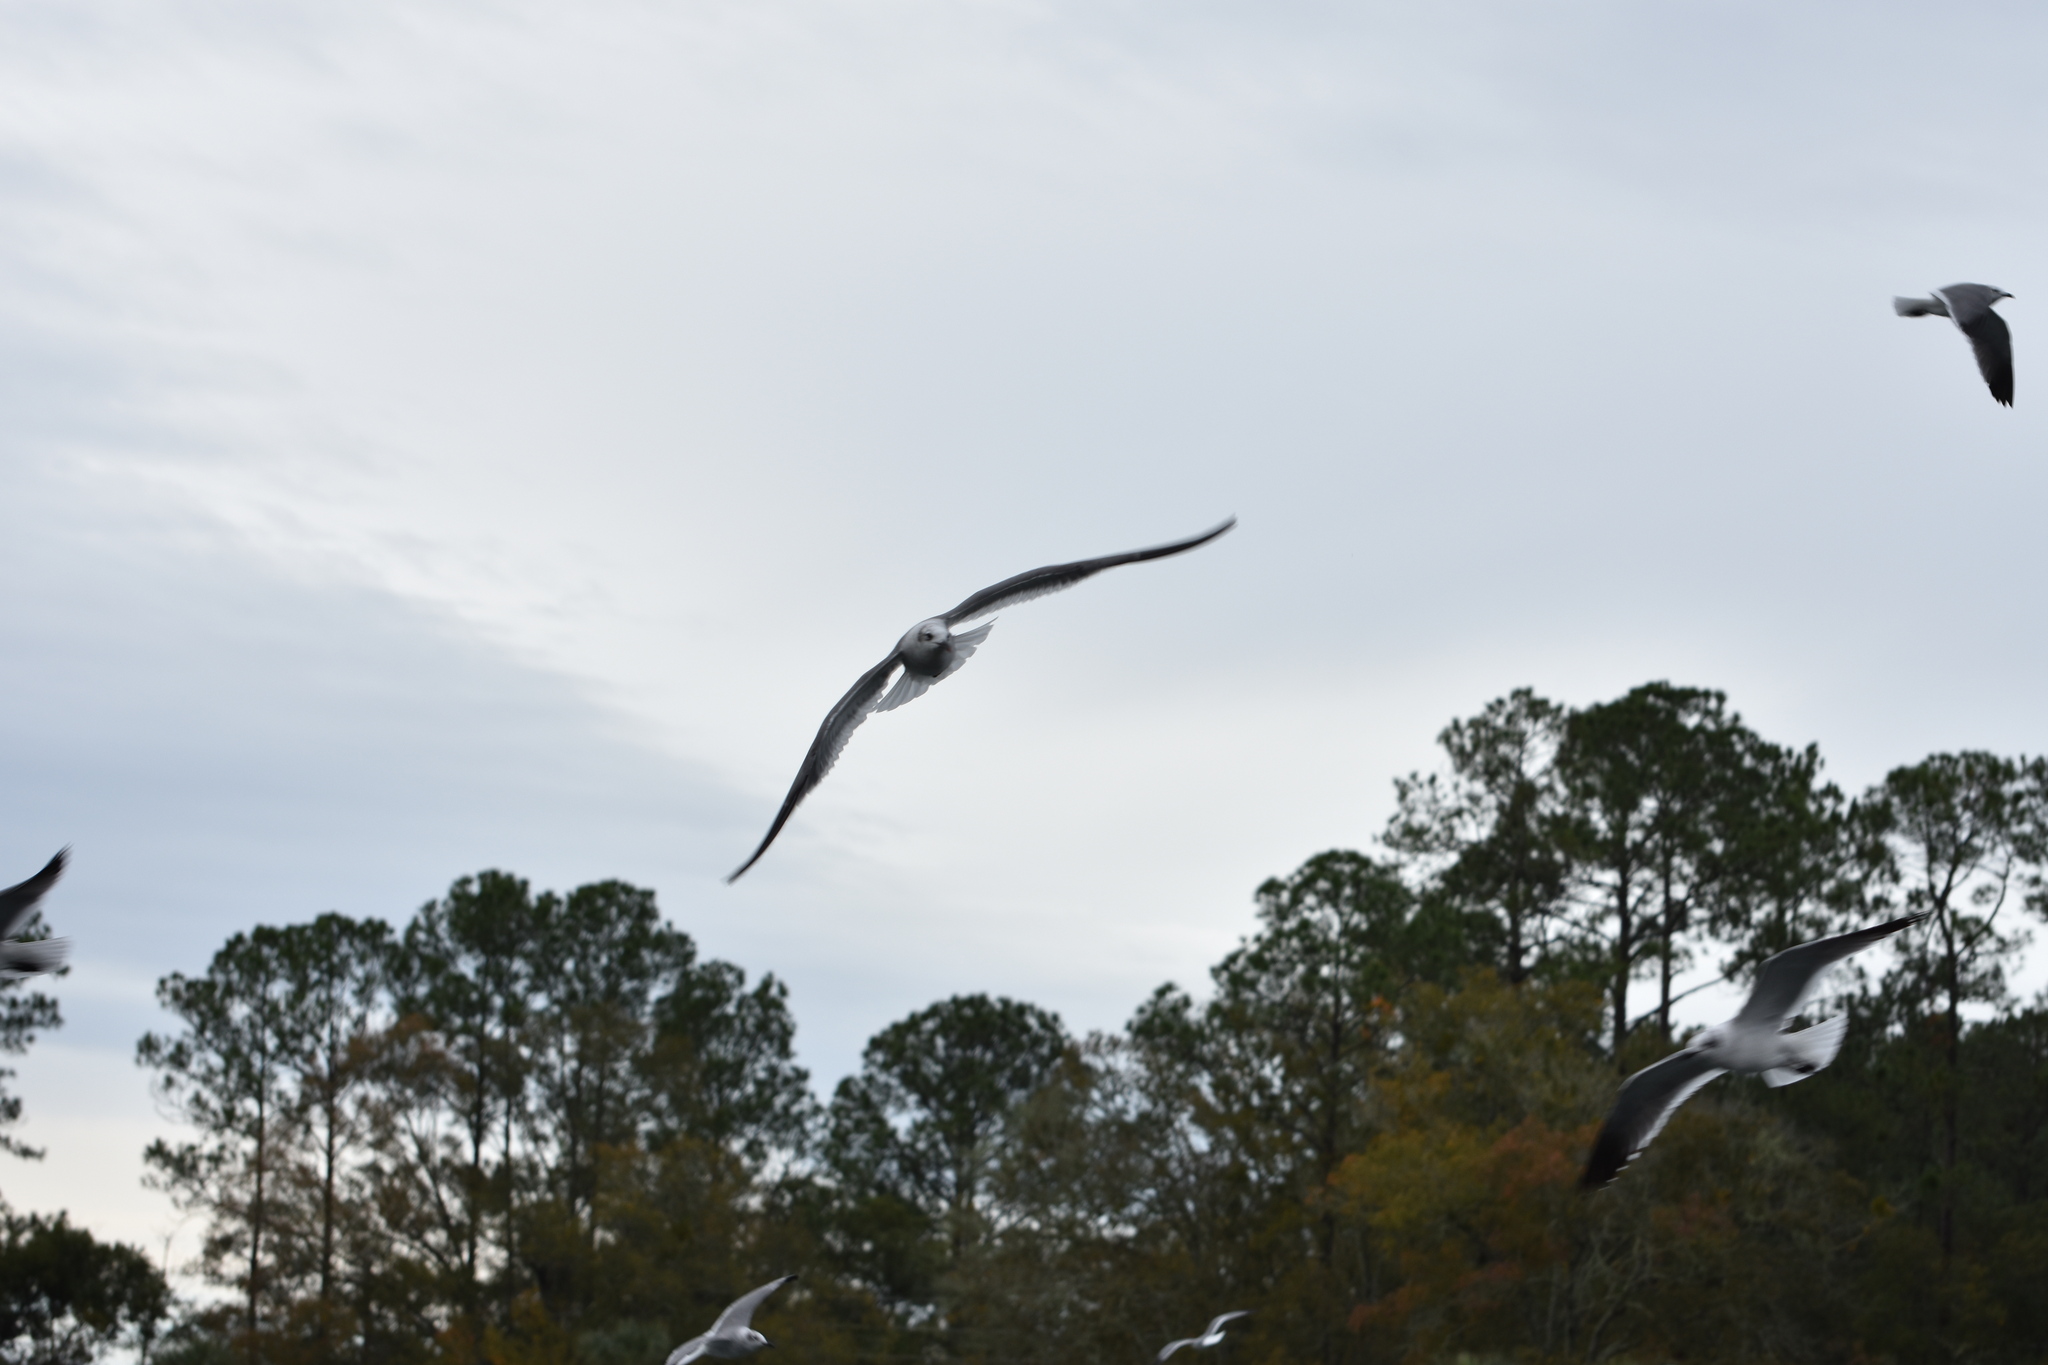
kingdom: Animalia
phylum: Chordata
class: Aves
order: Charadriiformes
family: Laridae
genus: Leucophaeus
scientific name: Leucophaeus atricilla
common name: Laughing gull
